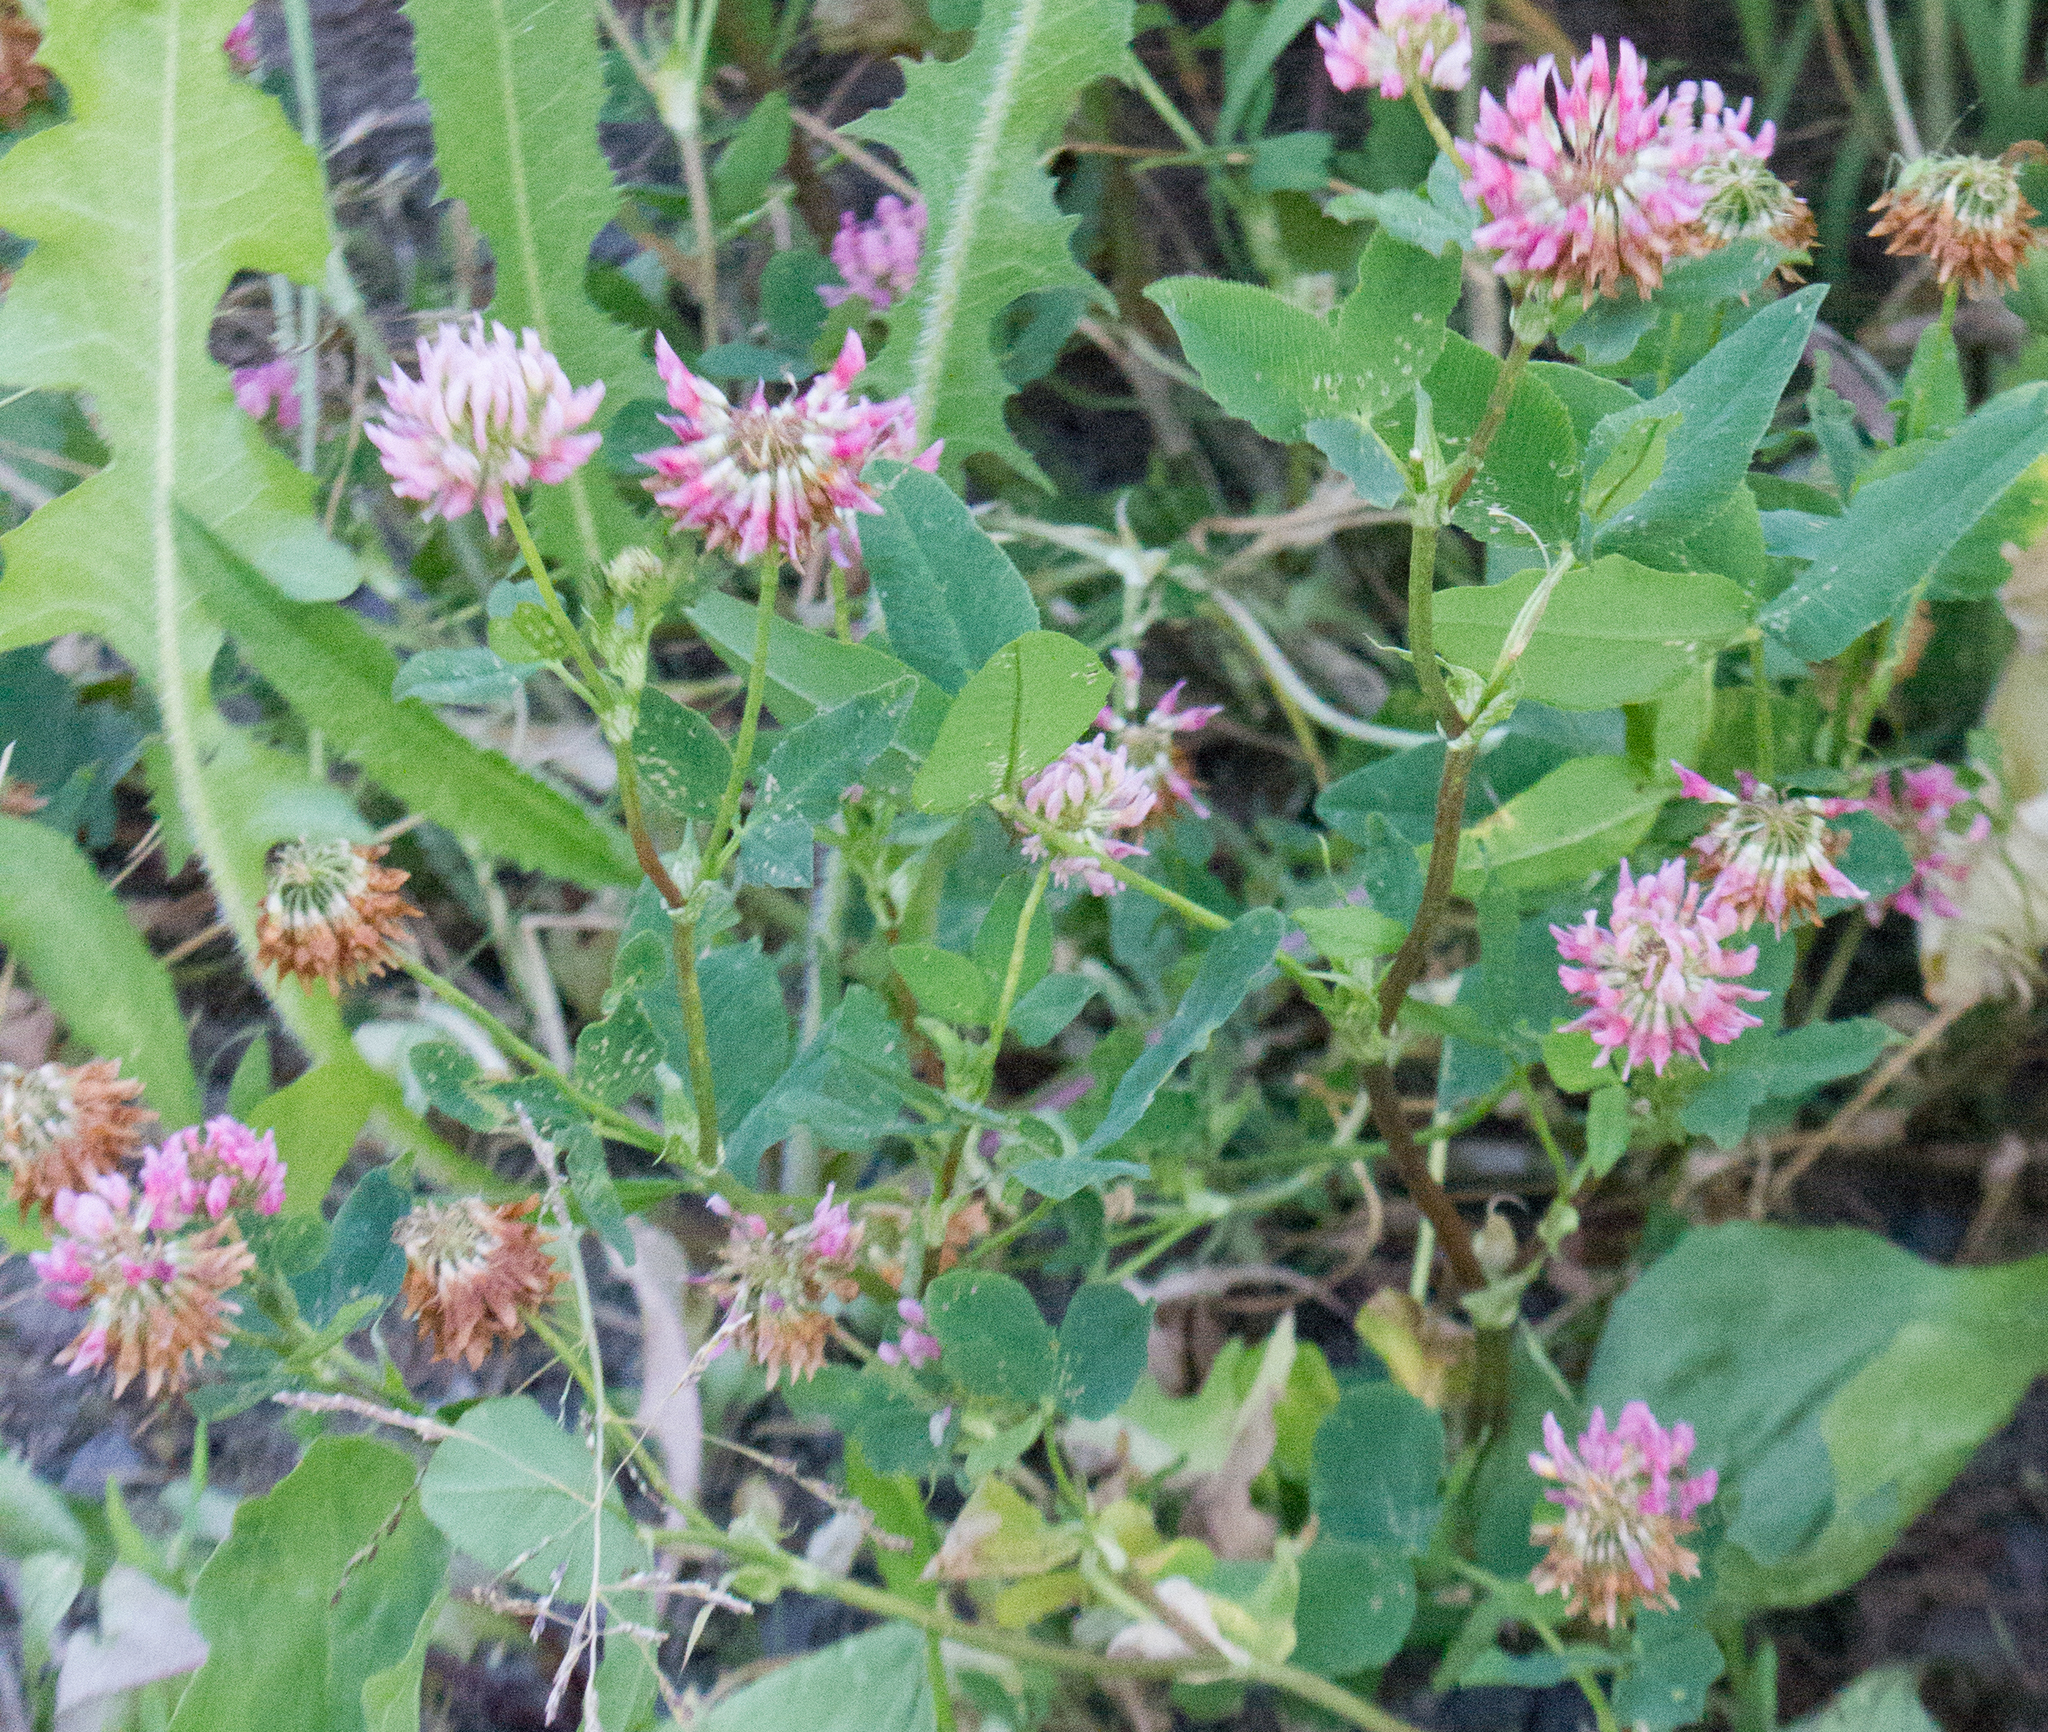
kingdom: Plantae
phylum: Tracheophyta
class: Magnoliopsida
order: Fabales
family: Fabaceae
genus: Trifolium
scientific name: Trifolium hybridum
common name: Alsike clover
